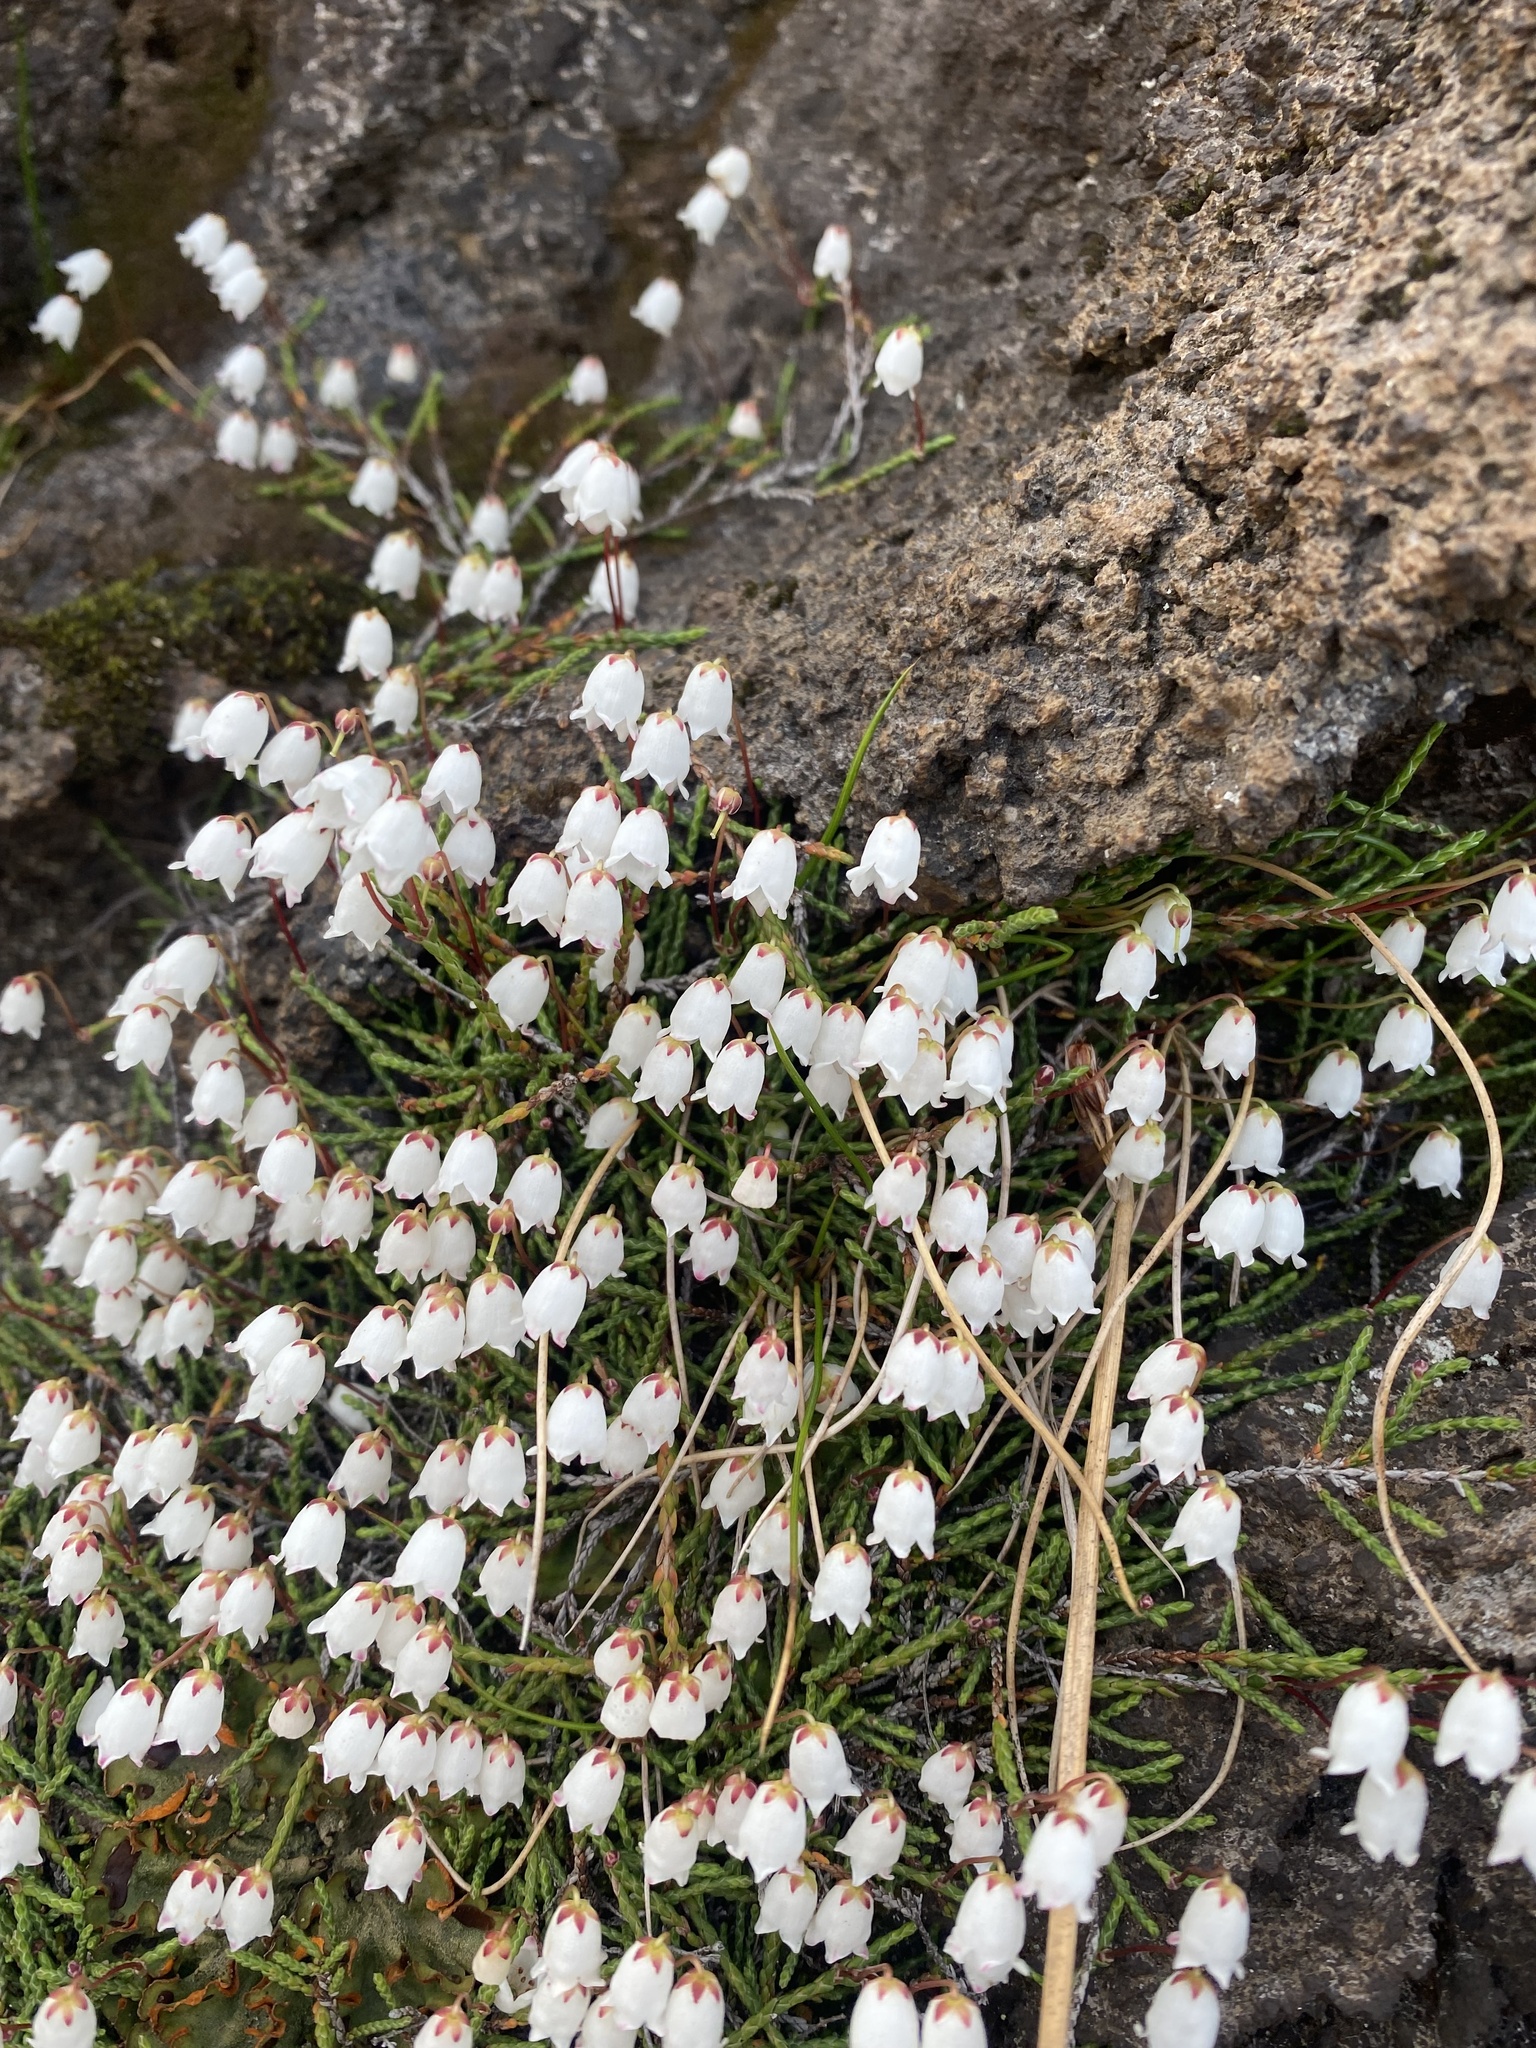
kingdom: Plantae
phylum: Tracheophyta
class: Magnoliopsida
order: Ericales
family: Ericaceae
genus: Cassiope
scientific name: Cassiope lycopodioides
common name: Clubmoss mountain heather
